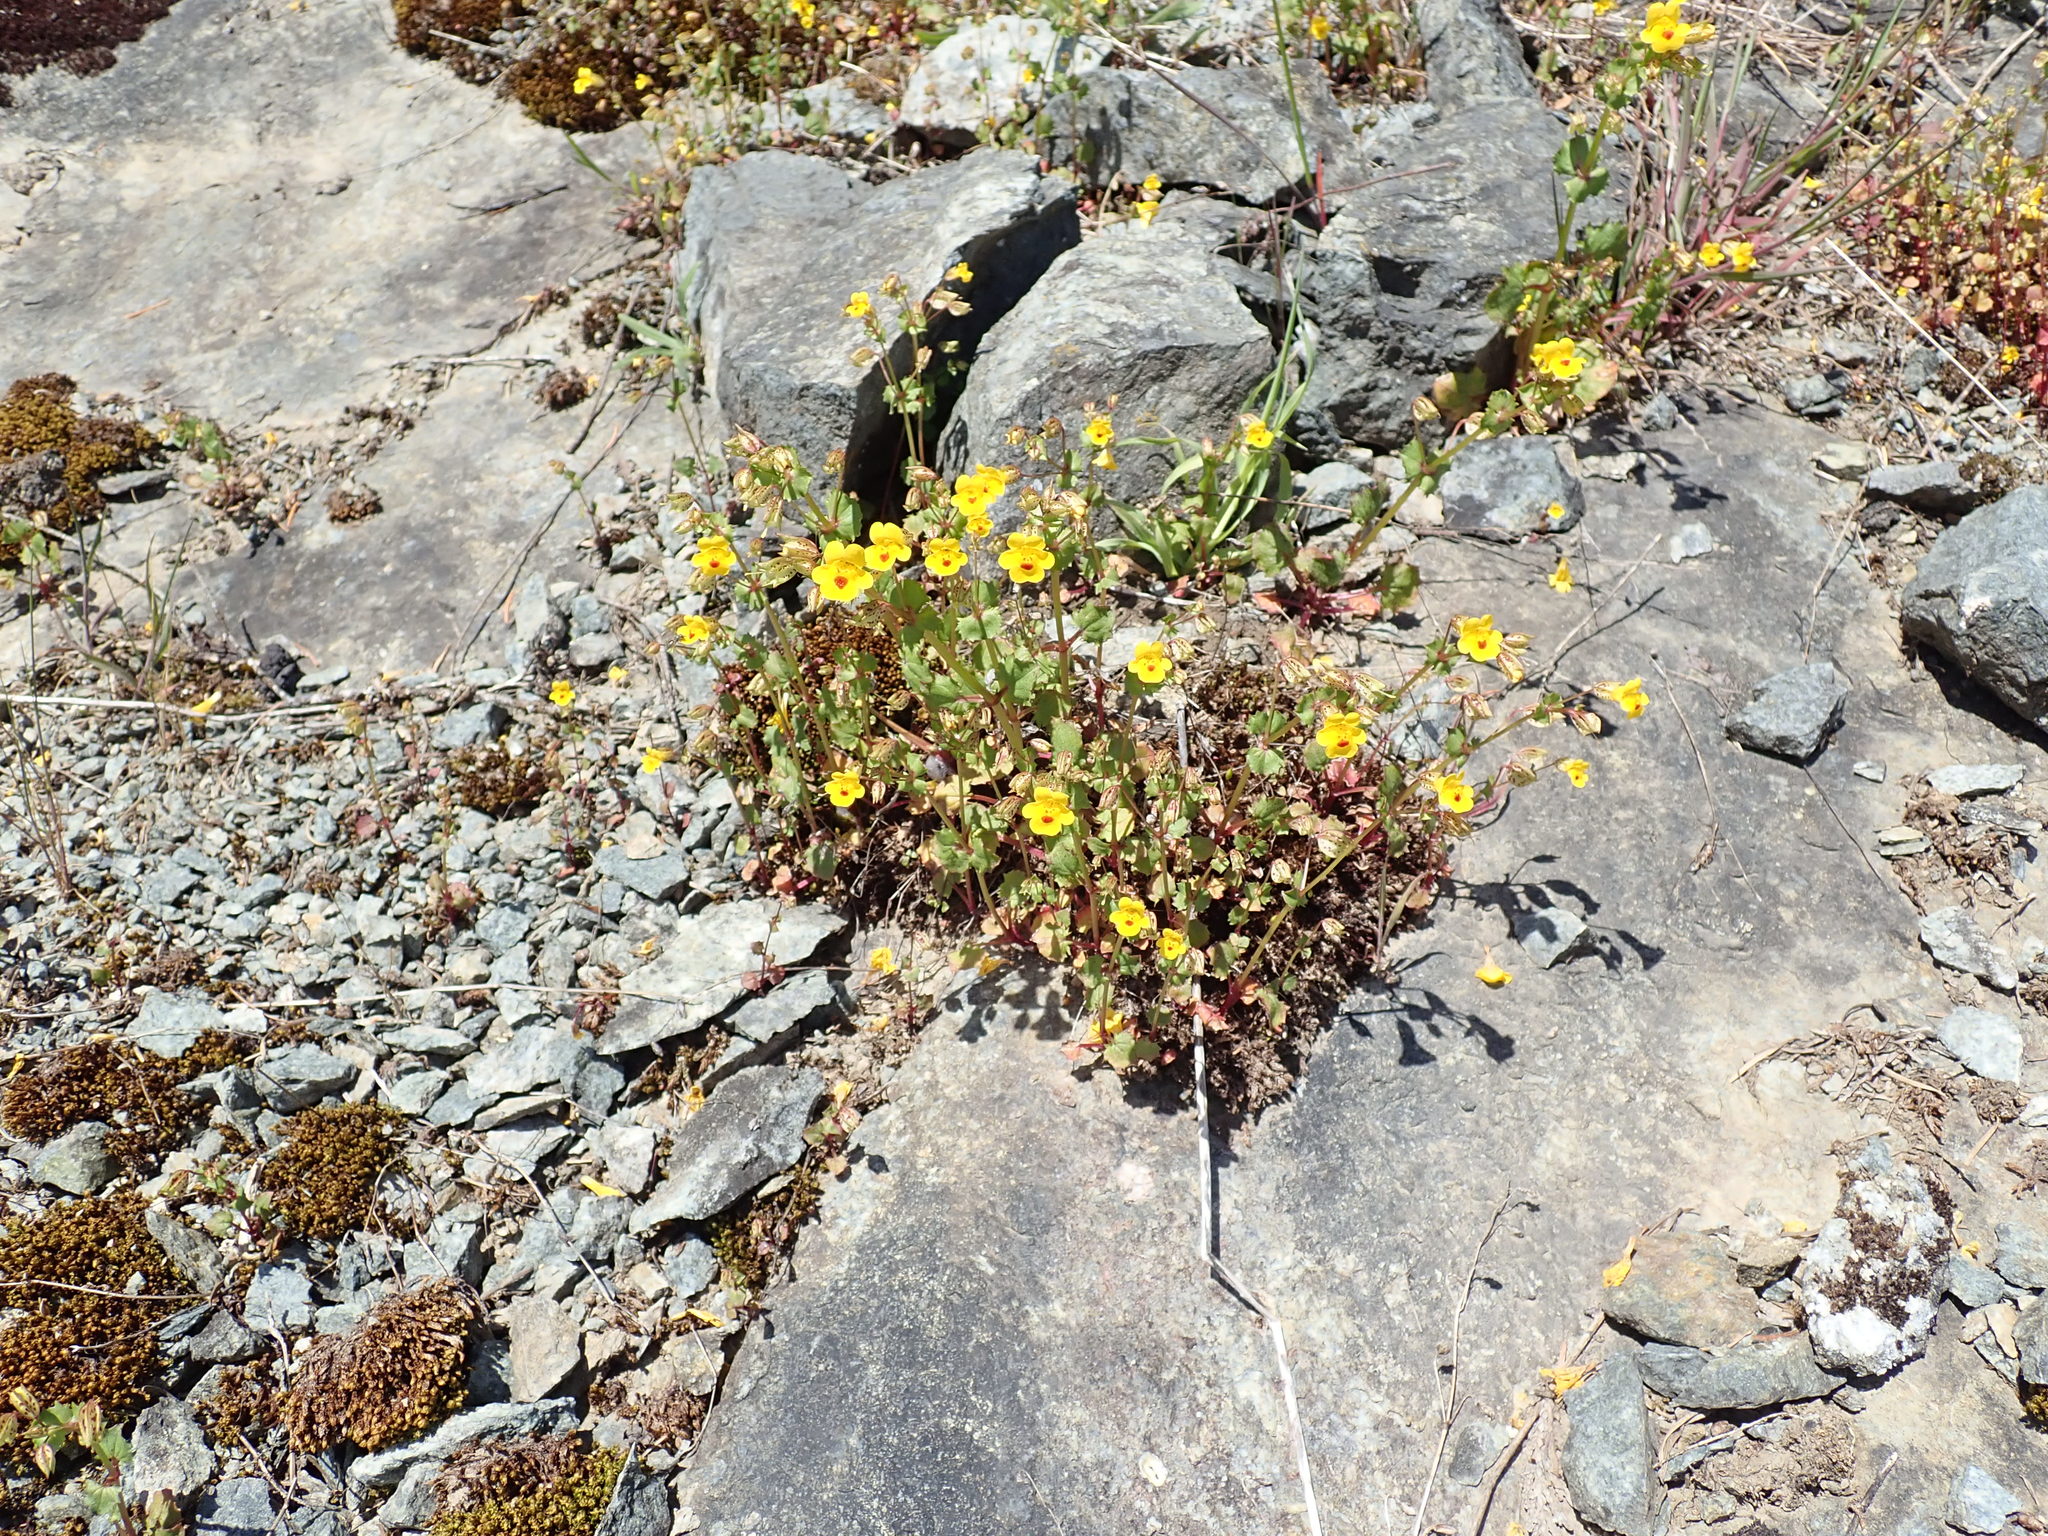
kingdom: Plantae
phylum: Tracheophyta
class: Magnoliopsida
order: Lamiales
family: Phrymaceae
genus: Erythranthe
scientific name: Erythranthe alsinoides
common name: Chickweed monkeyflower
